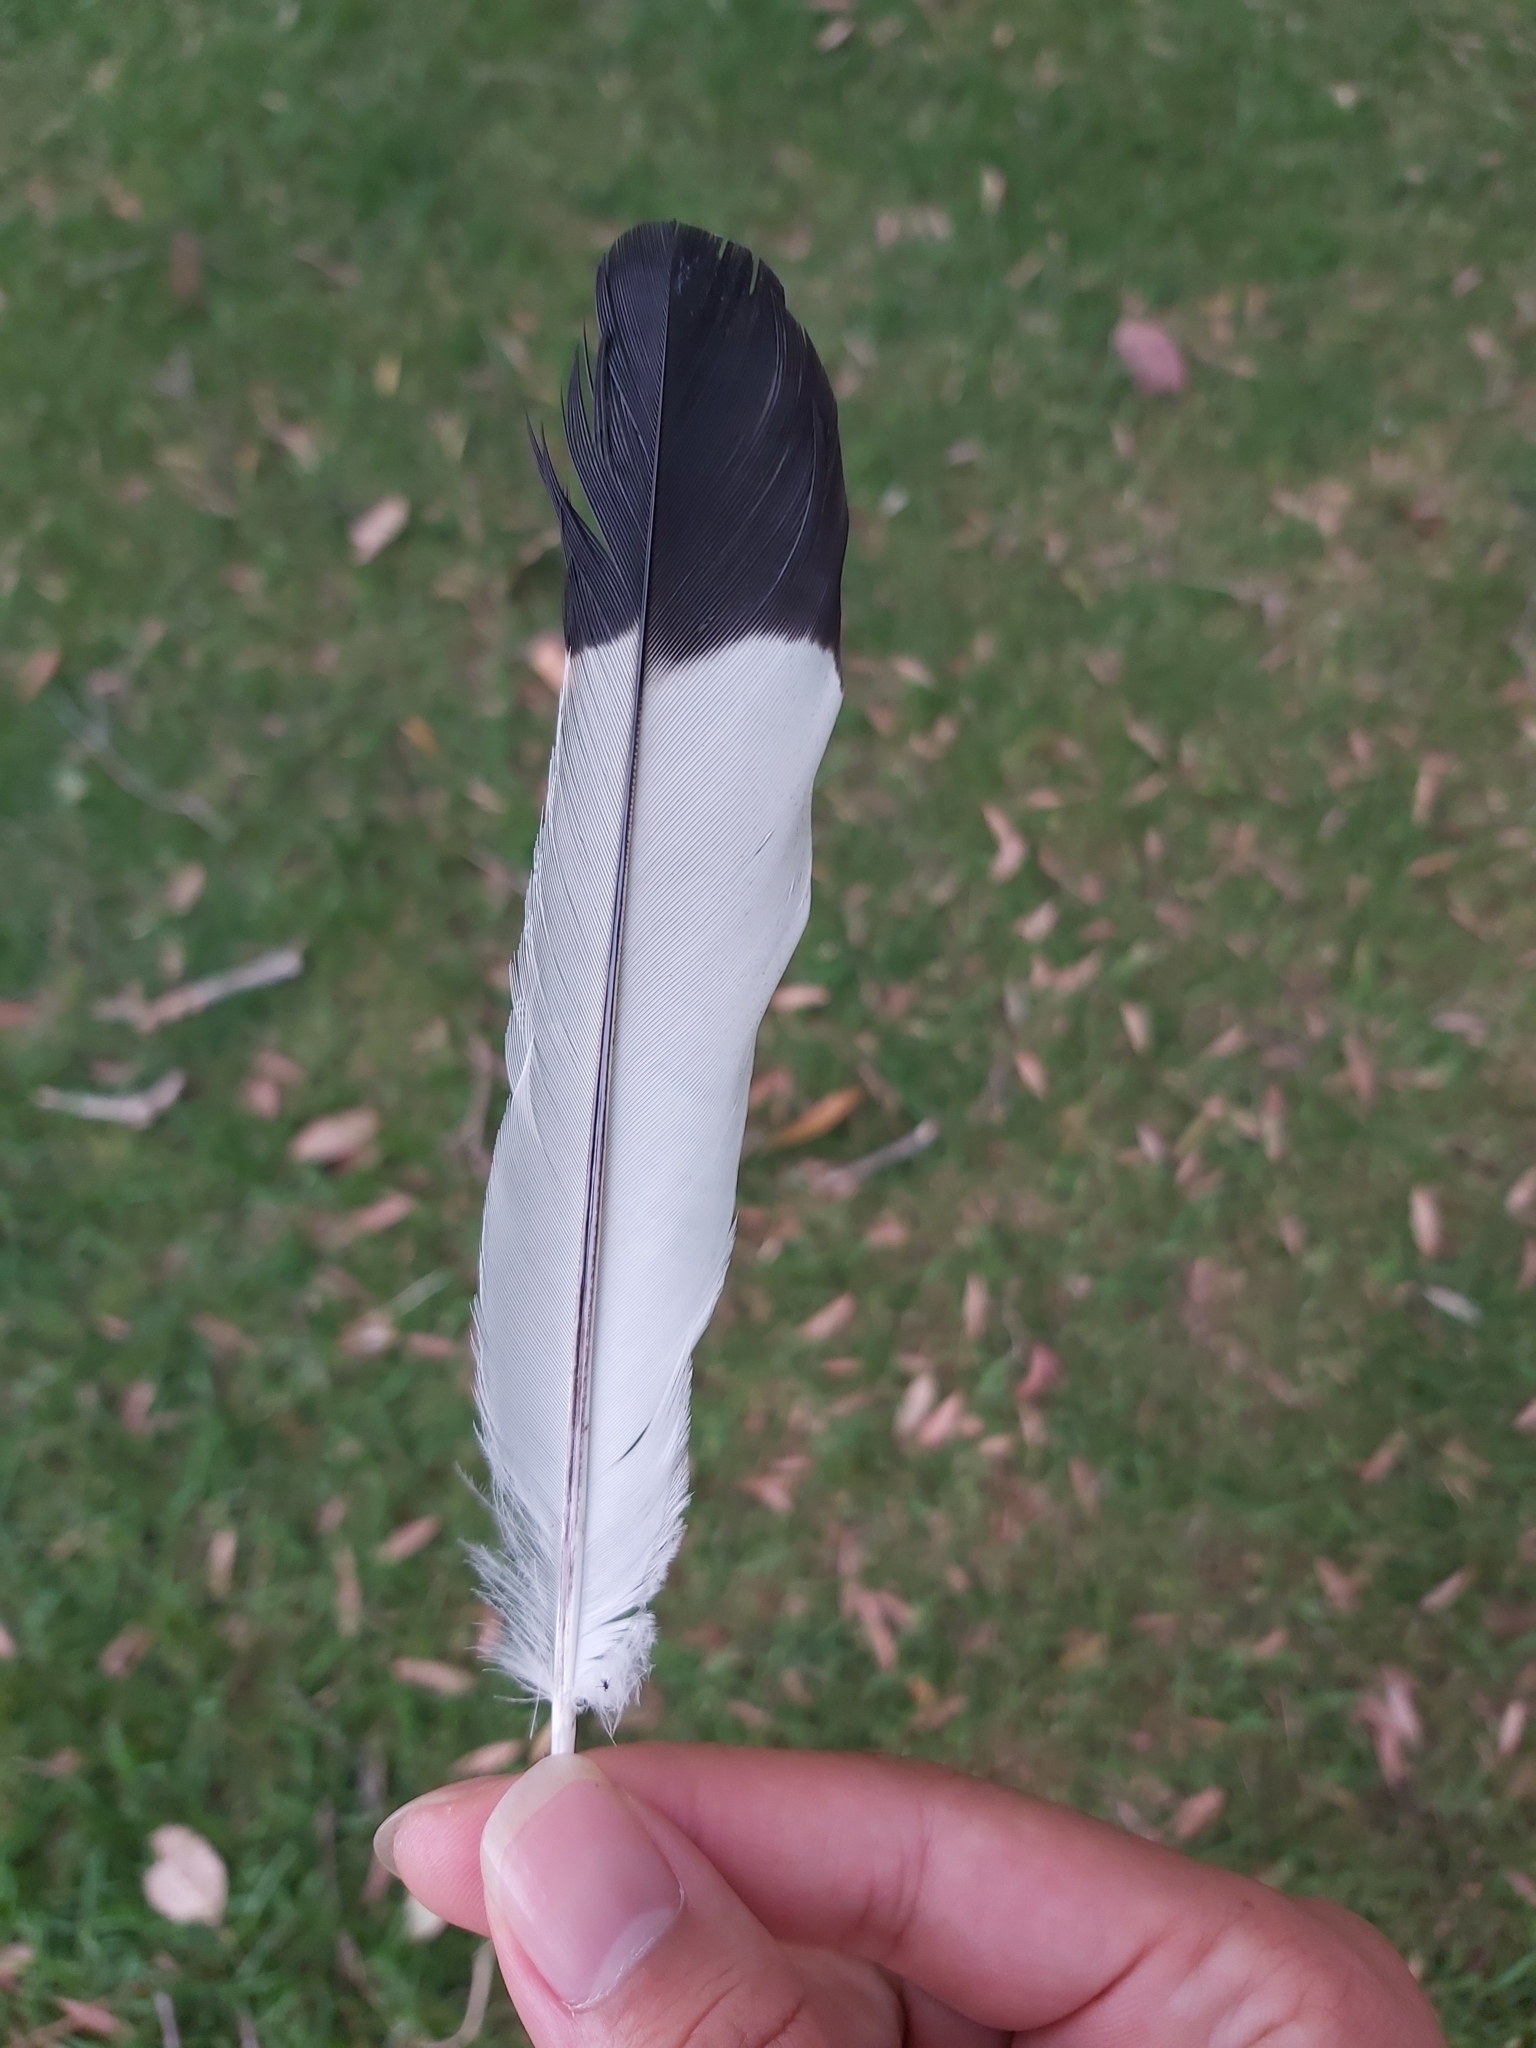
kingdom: Animalia
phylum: Chordata
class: Aves
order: Passeriformes
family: Cracticidae
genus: Gymnorhina
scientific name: Gymnorhina tibicen
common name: Australian magpie
